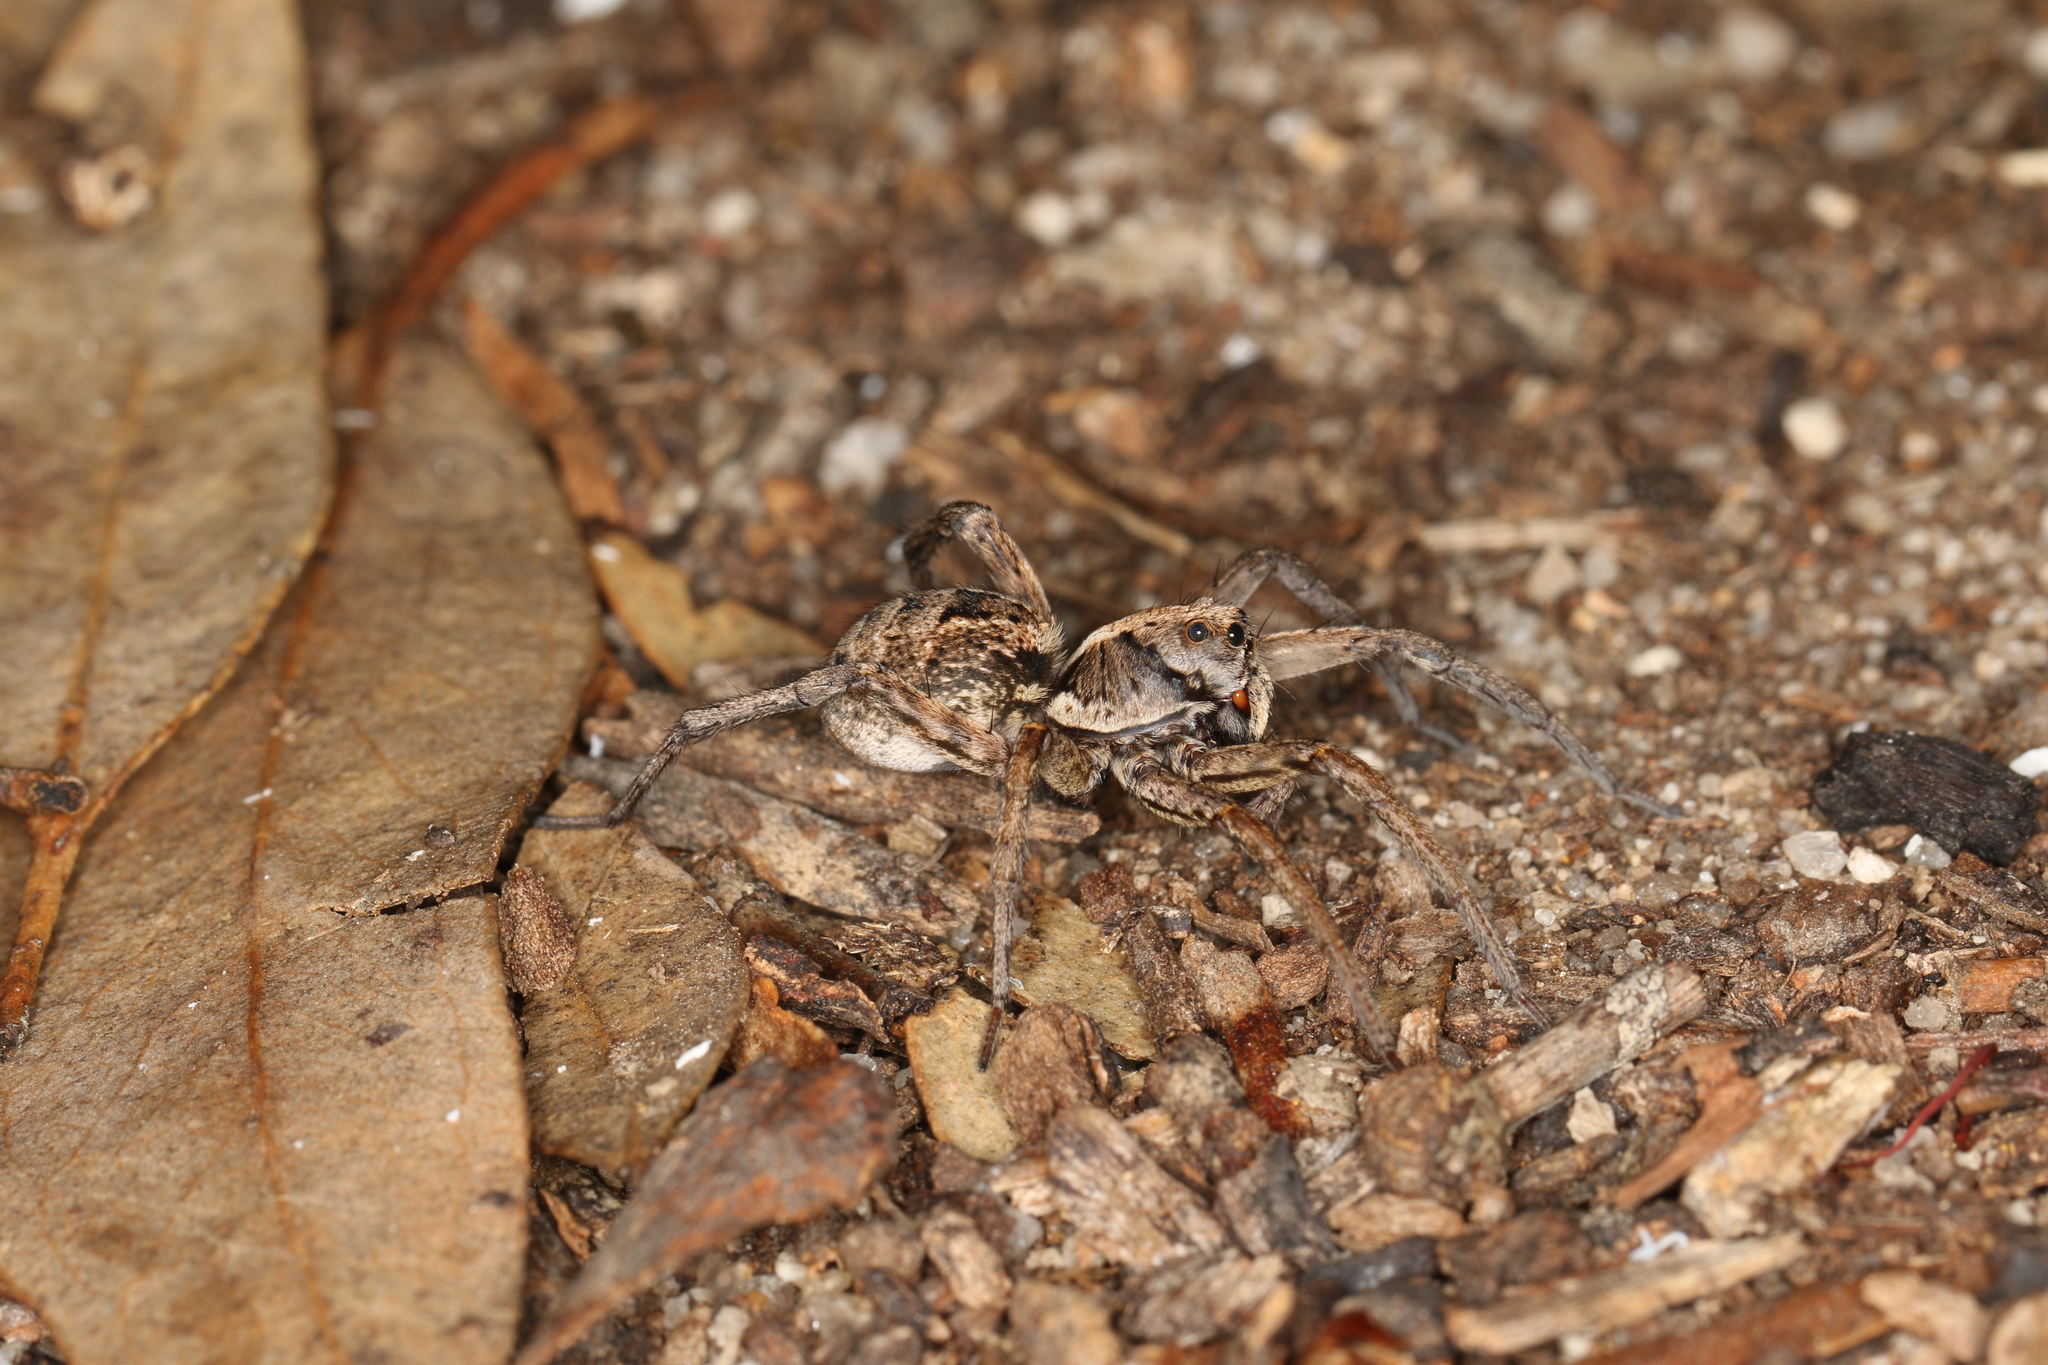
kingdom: Animalia
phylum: Arthropoda
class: Arachnida
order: Araneae
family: Lycosidae
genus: Venator
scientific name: Venator immansuetus
